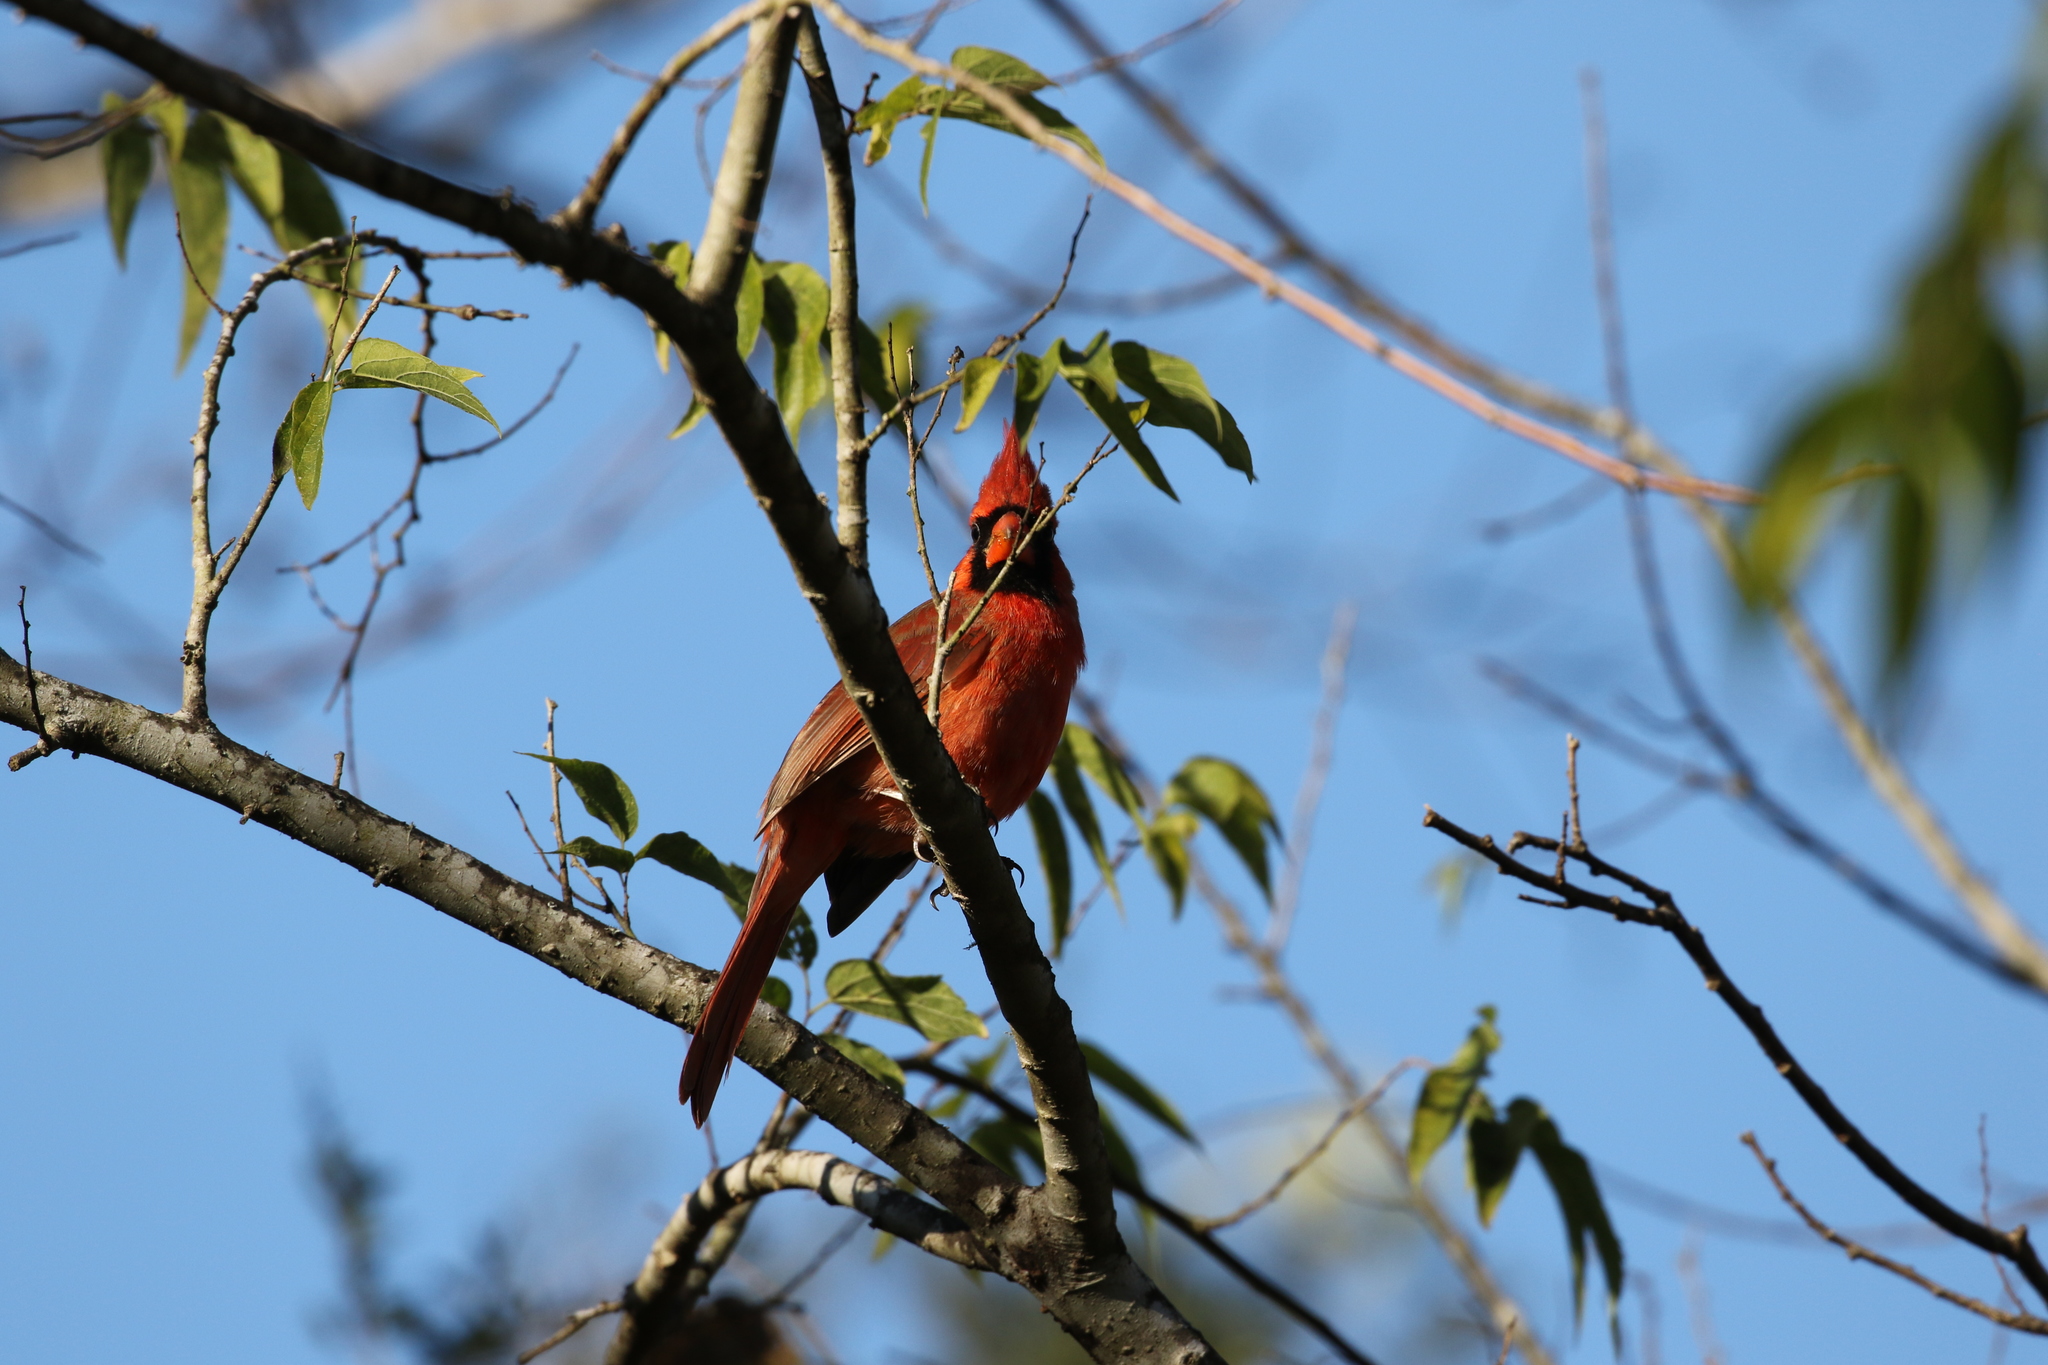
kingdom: Animalia
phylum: Chordata
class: Aves
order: Passeriformes
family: Cardinalidae
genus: Cardinalis
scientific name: Cardinalis cardinalis
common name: Northern cardinal
